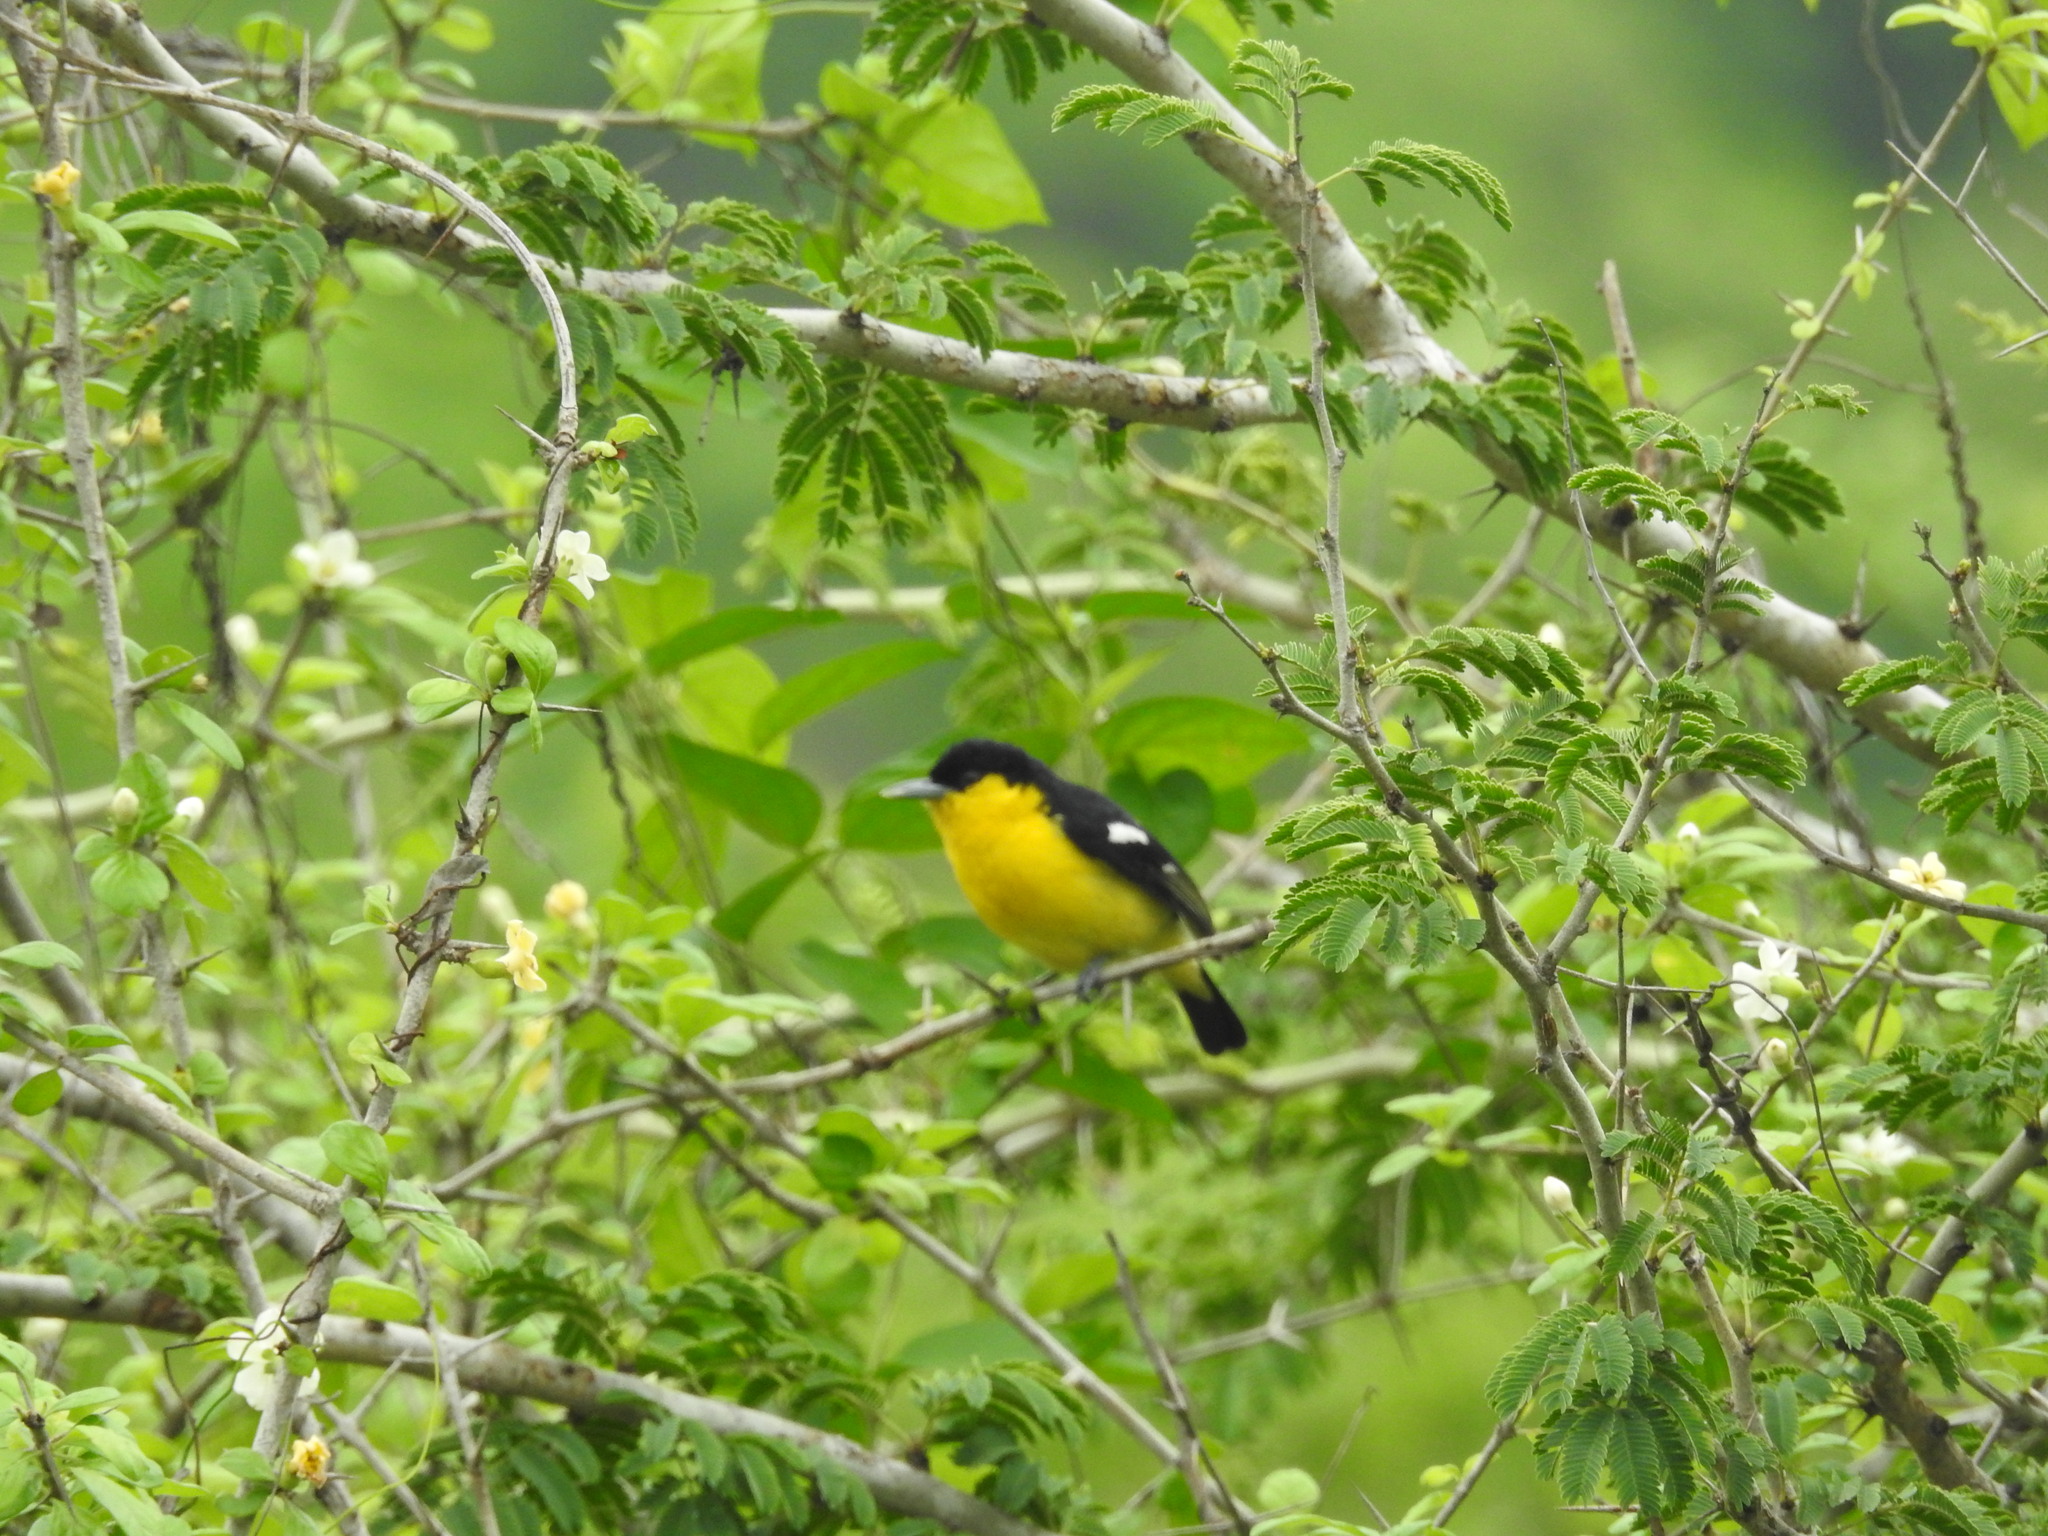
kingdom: Animalia
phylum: Chordata
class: Aves
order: Passeriformes
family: Aegithinidae
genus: Aegithina
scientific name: Aegithina tiphia
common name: Common iora
